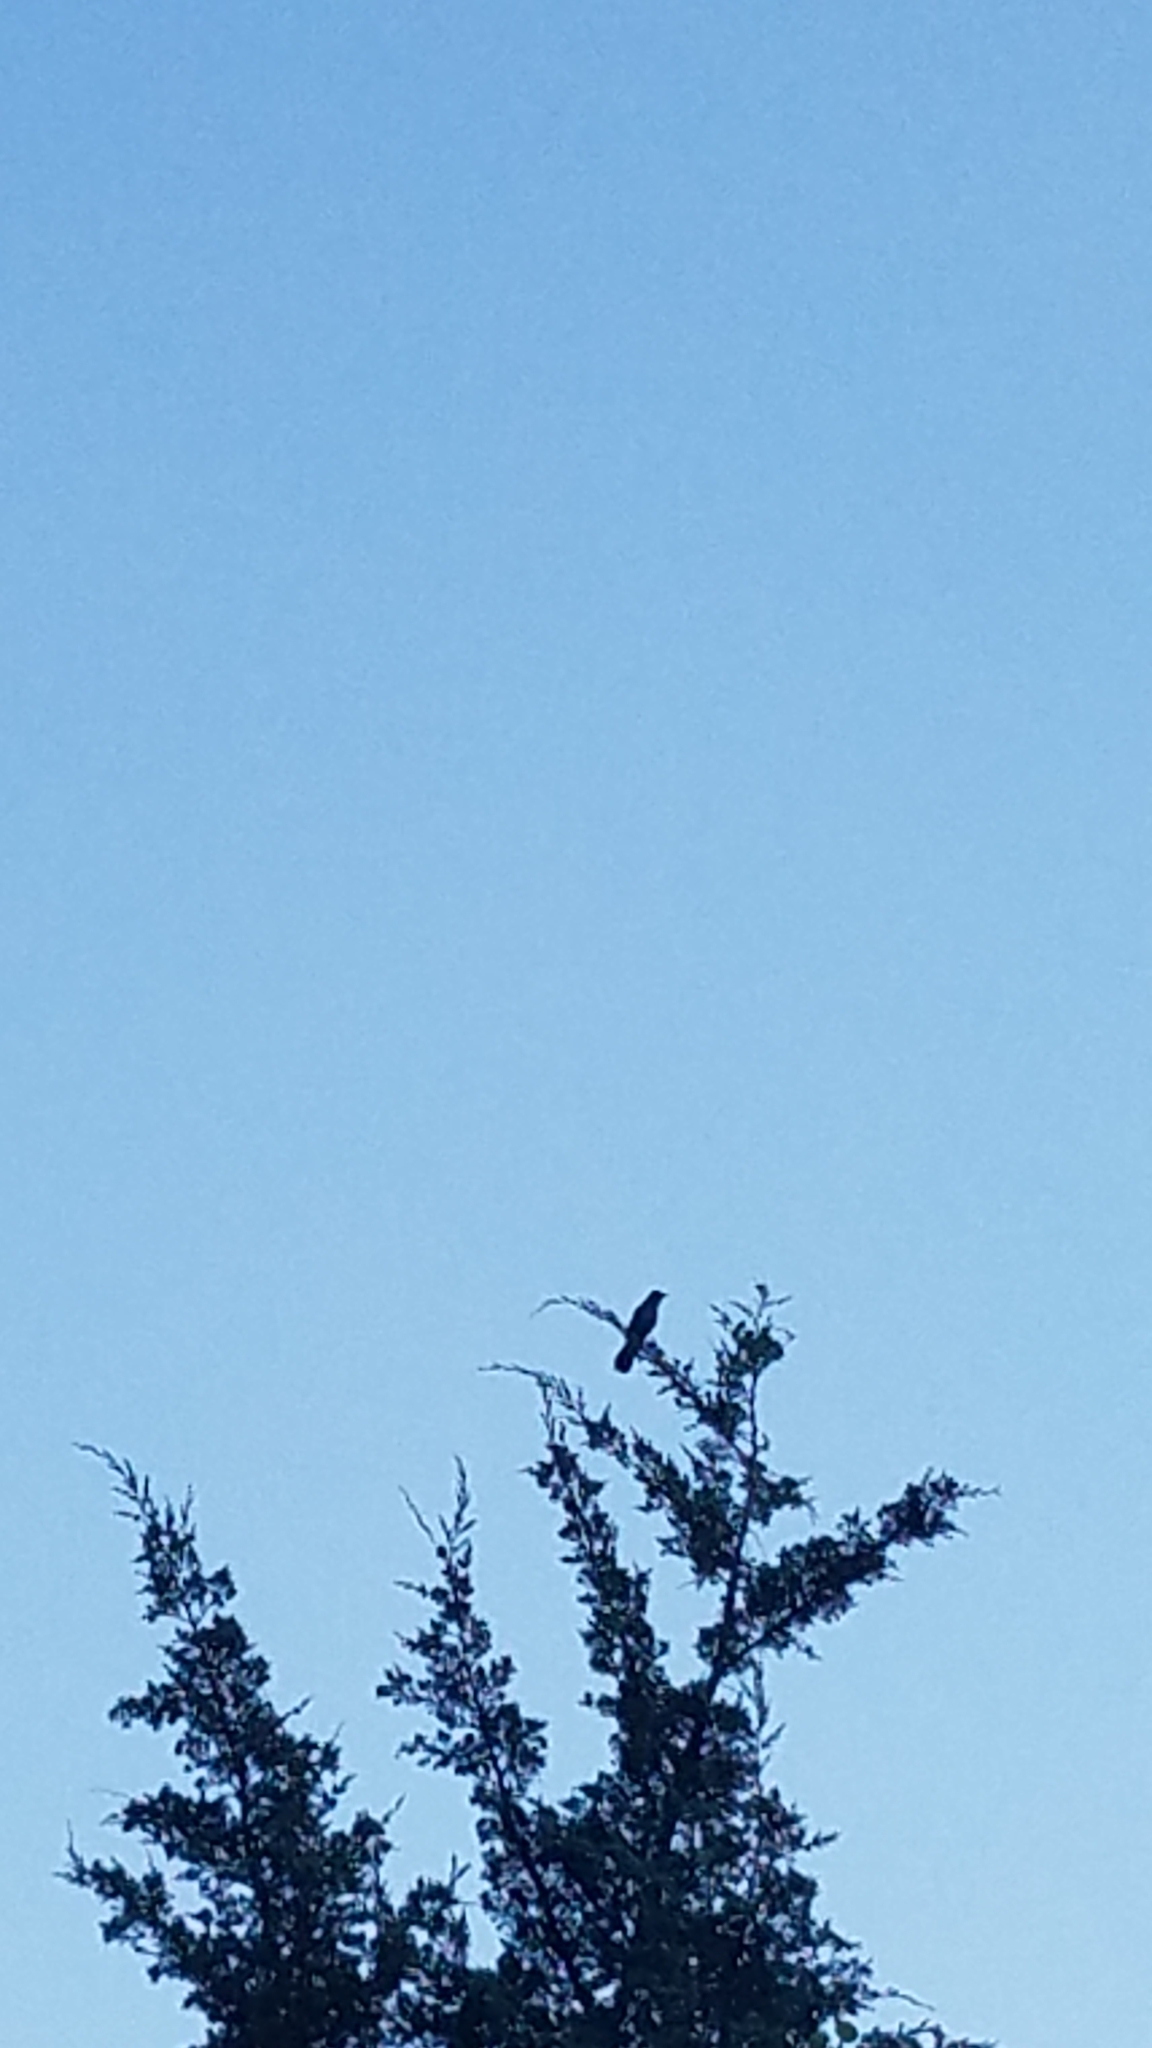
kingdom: Animalia
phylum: Chordata
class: Aves
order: Passeriformes
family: Mimidae
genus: Dumetella
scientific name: Dumetella carolinensis
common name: Gray catbird
